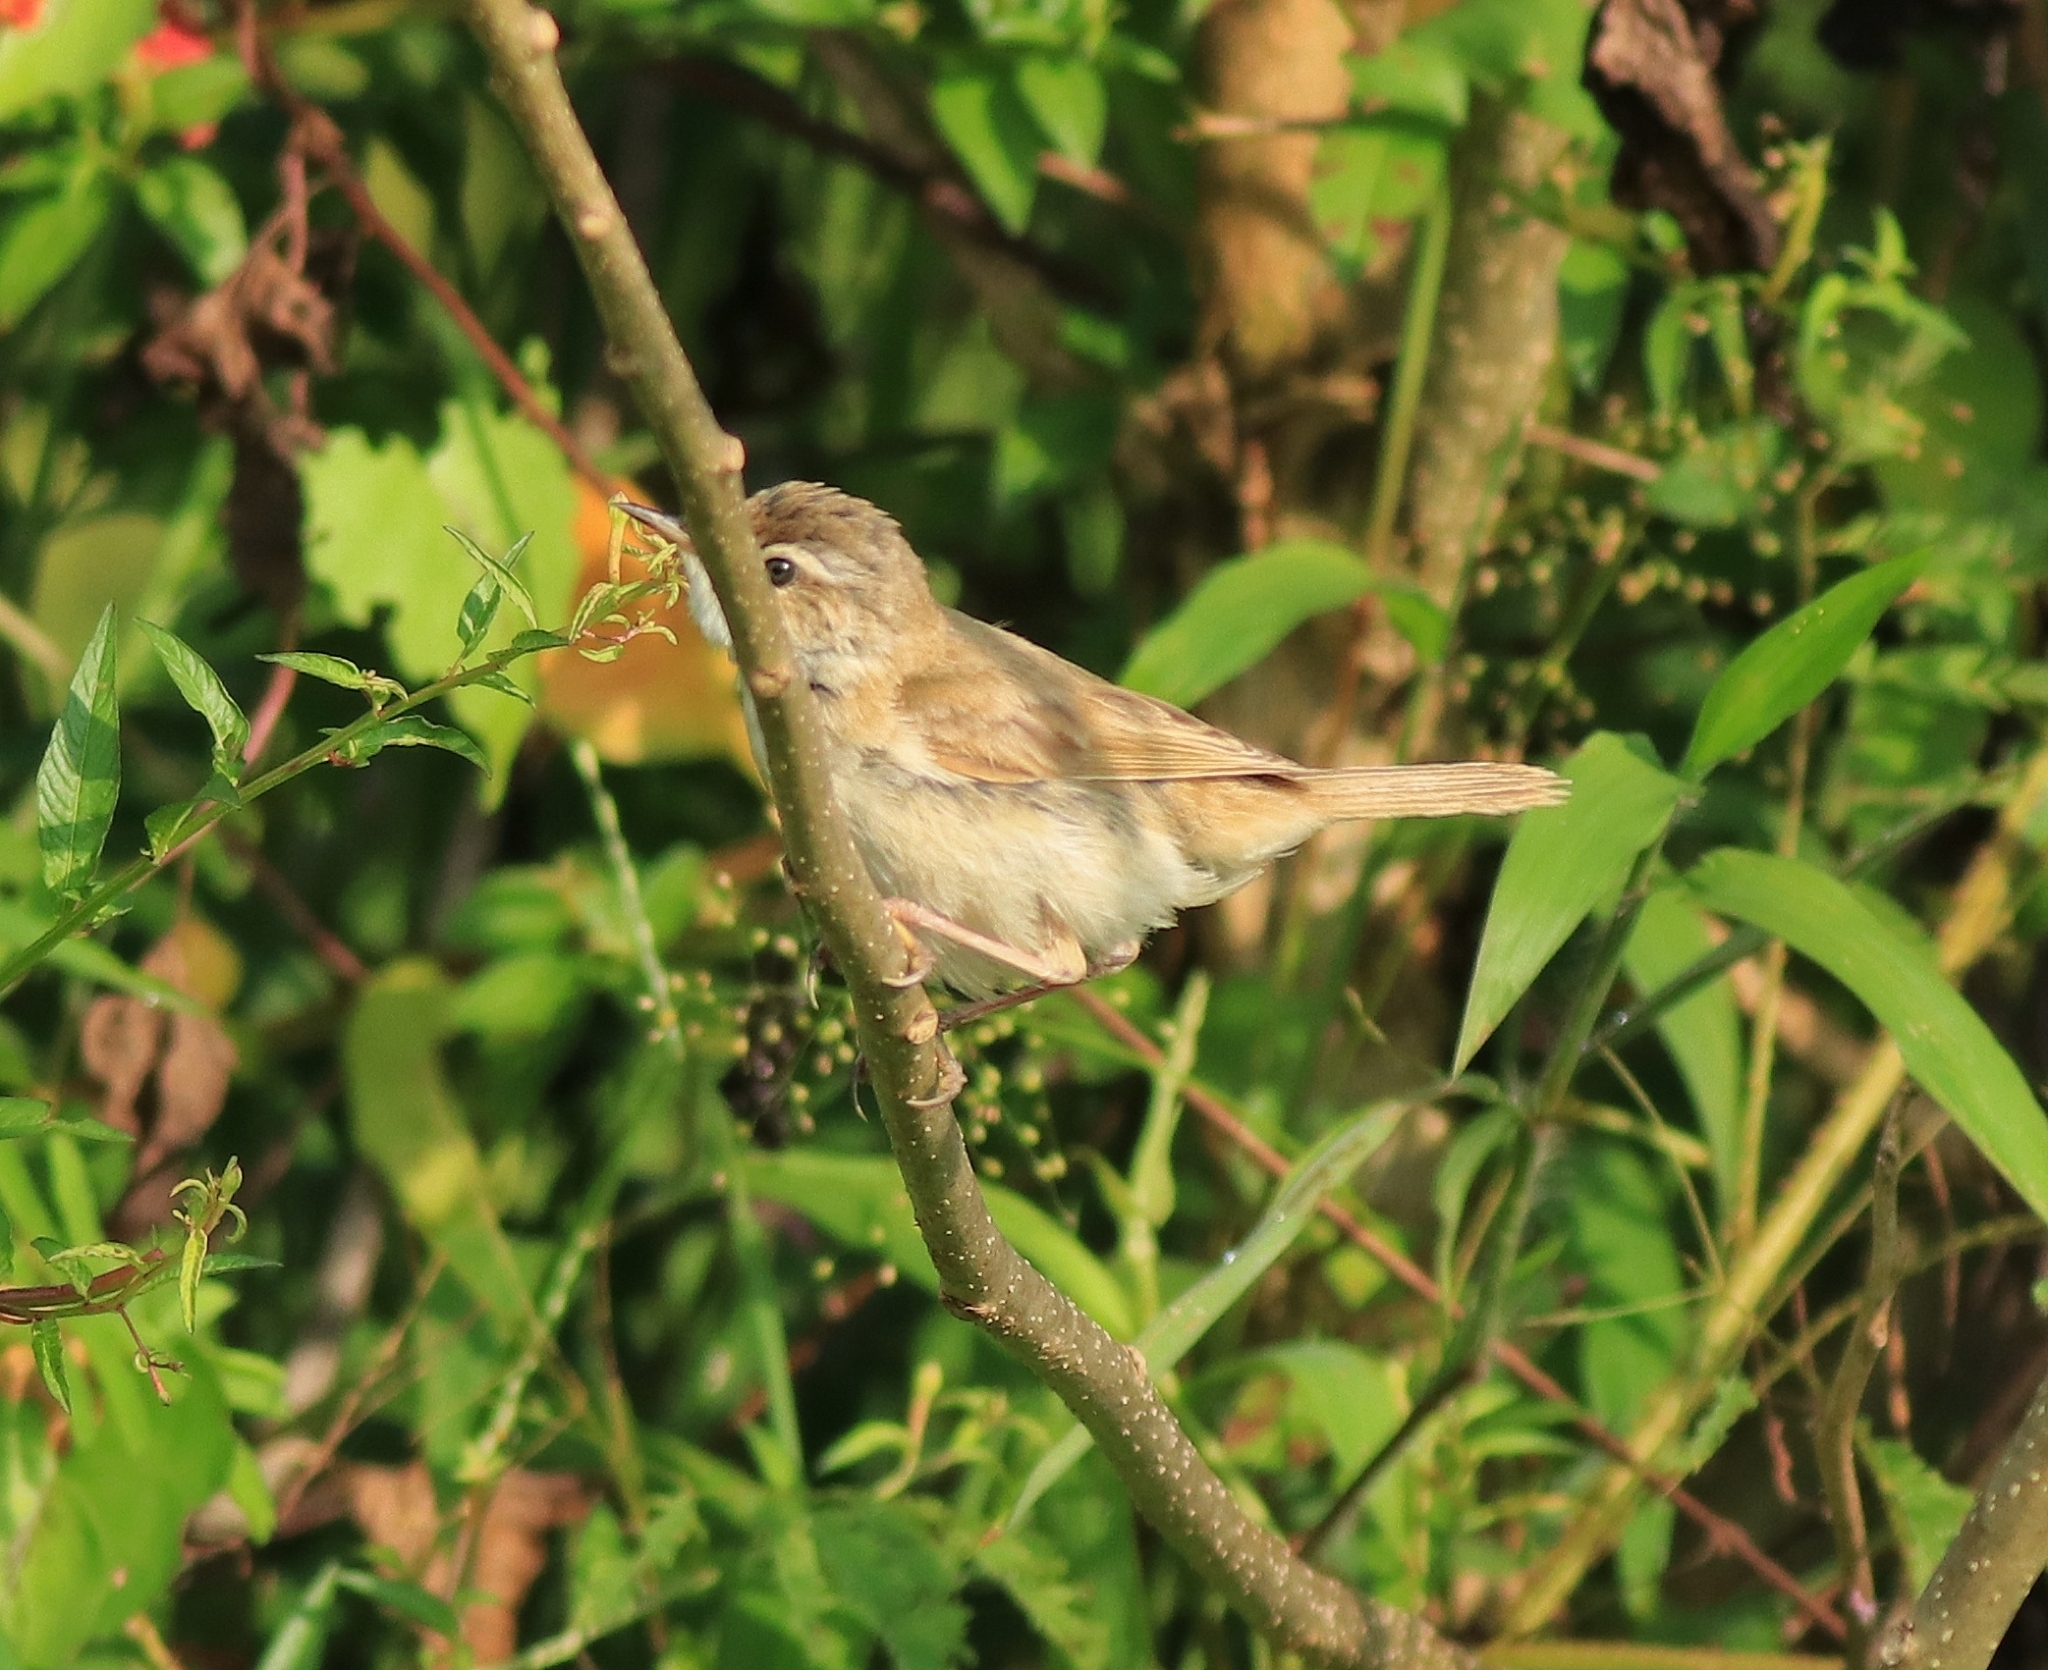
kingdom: Animalia
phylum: Chordata
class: Aves
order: Passeriformes
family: Acrocephalidae
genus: Acrocephalus
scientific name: Acrocephalus agricola
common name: Paddyfield warbler
